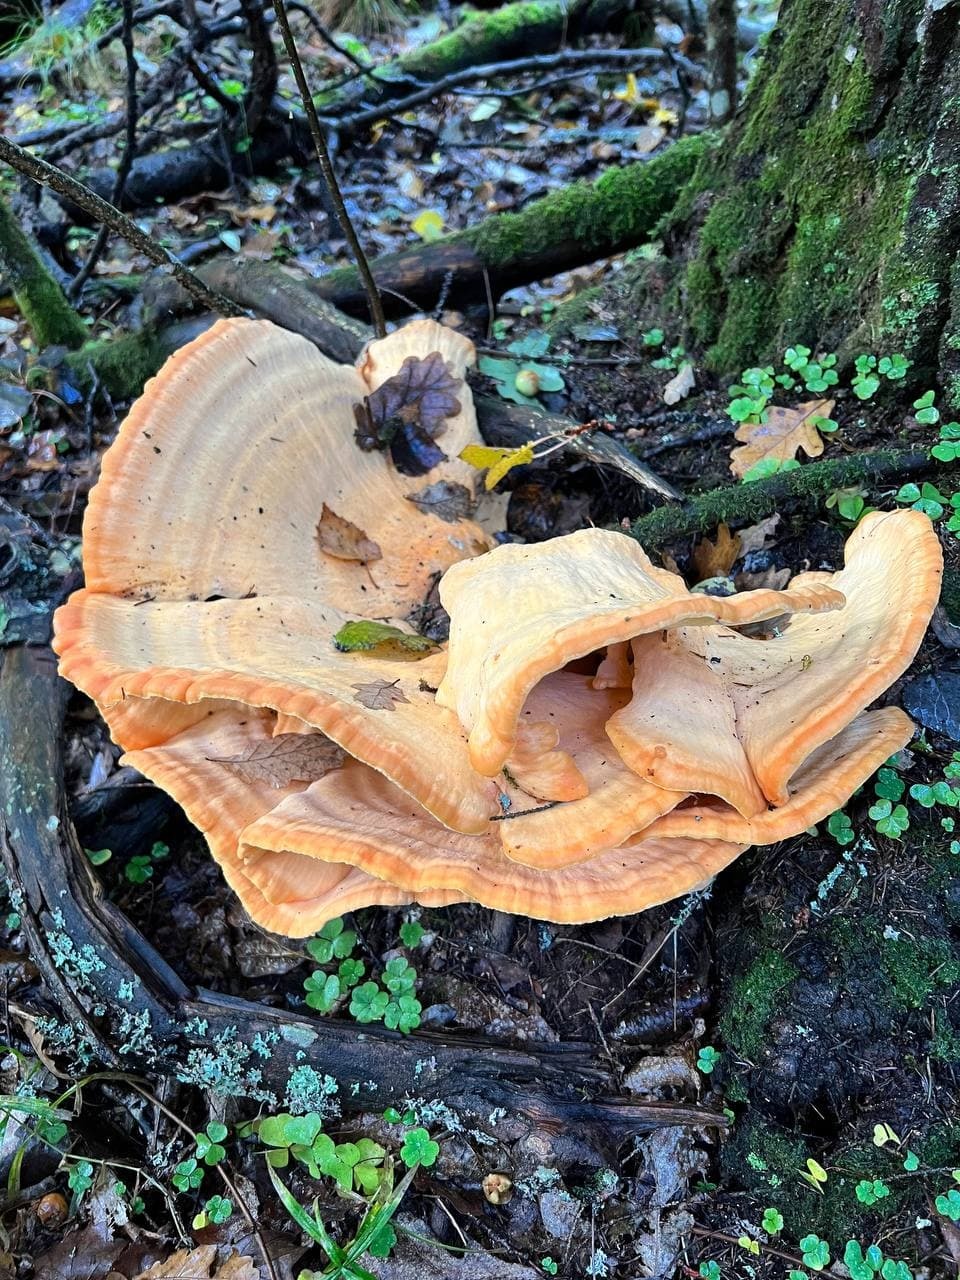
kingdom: Fungi
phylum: Basidiomycota
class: Agaricomycetes
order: Polyporales
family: Laetiporaceae
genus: Laetiporus
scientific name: Laetiporus sulphureus
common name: Chicken of the woods
